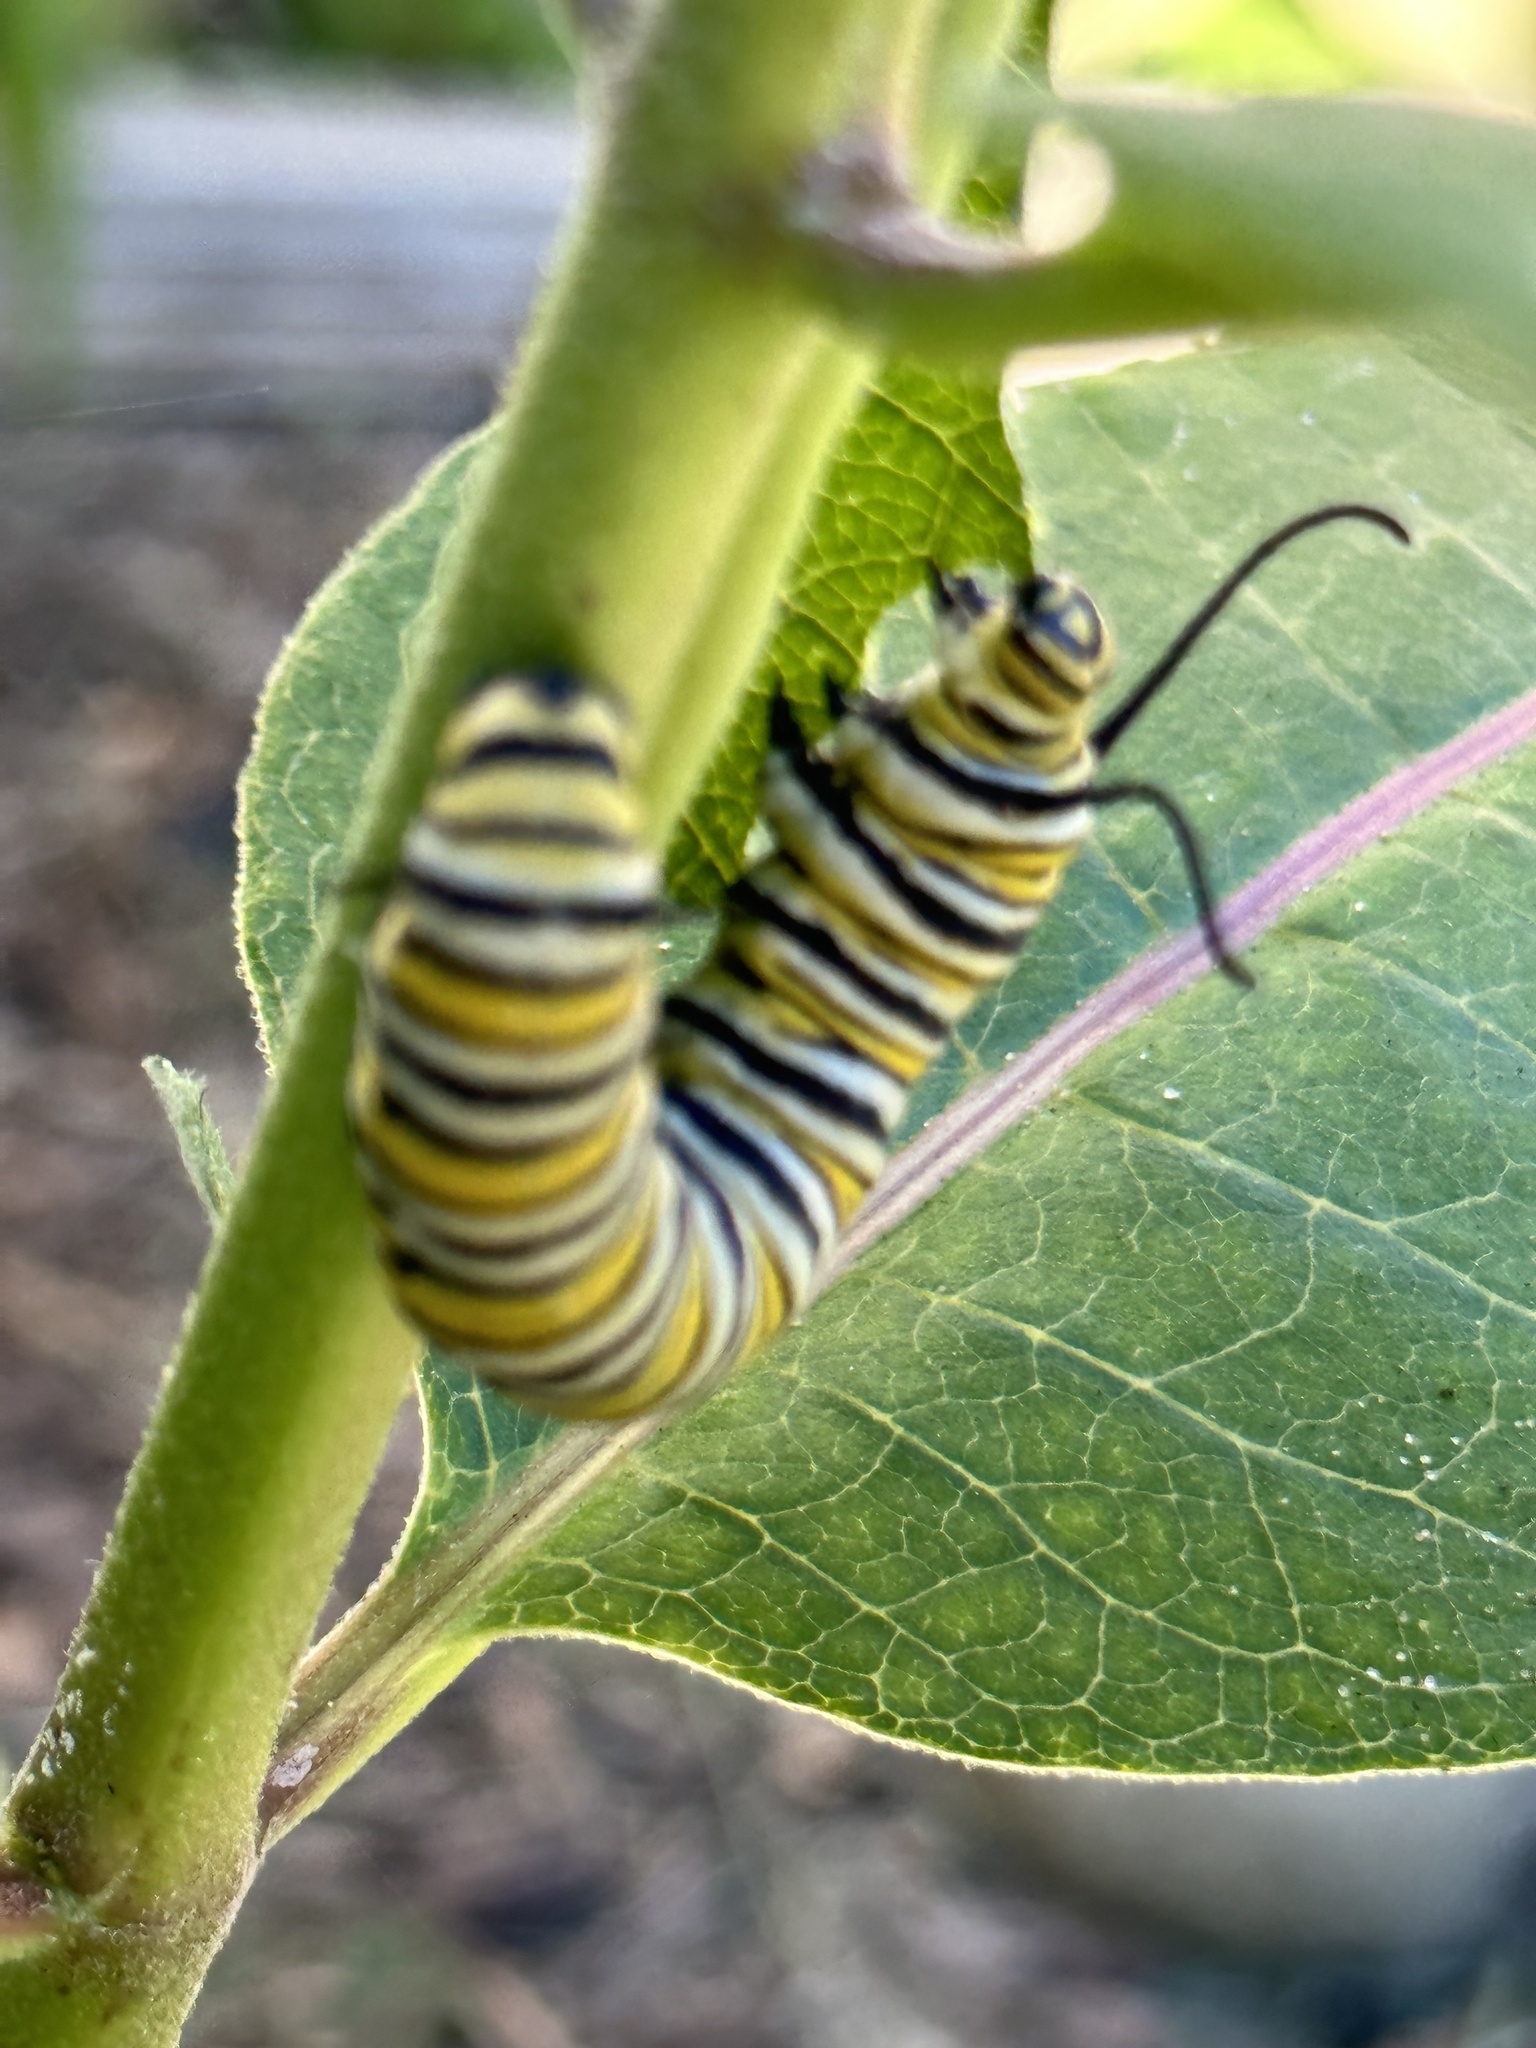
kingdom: Animalia
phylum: Arthropoda
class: Insecta
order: Lepidoptera
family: Nymphalidae
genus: Danaus
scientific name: Danaus plexippus
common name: Monarch
